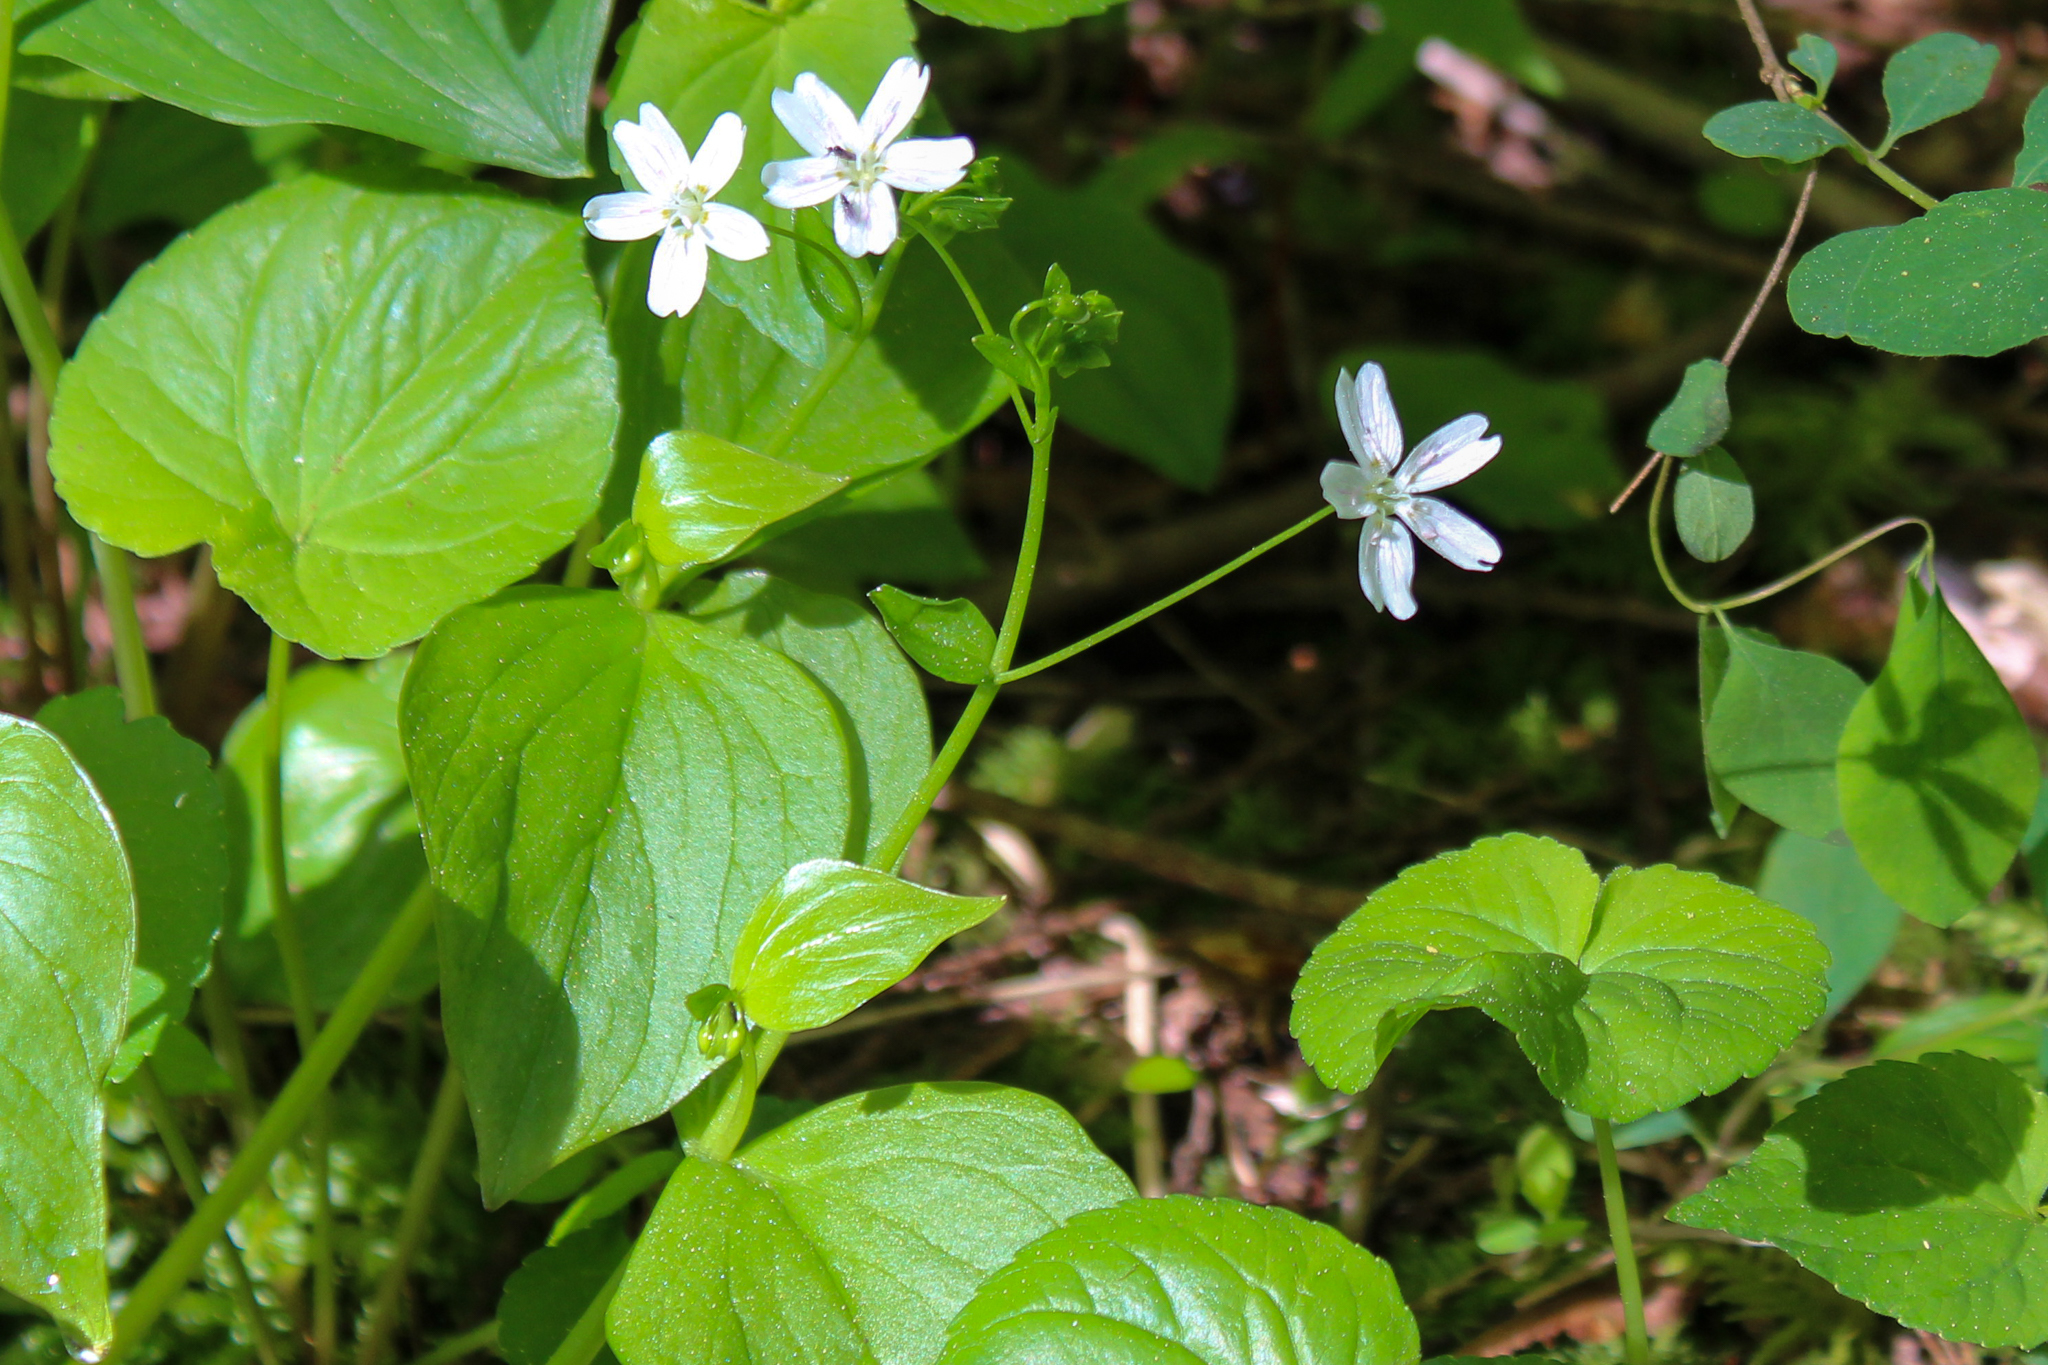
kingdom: Plantae
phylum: Tracheophyta
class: Magnoliopsida
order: Caryophyllales
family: Montiaceae
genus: Claytonia
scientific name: Claytonia sibirica
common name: Pink purslane
